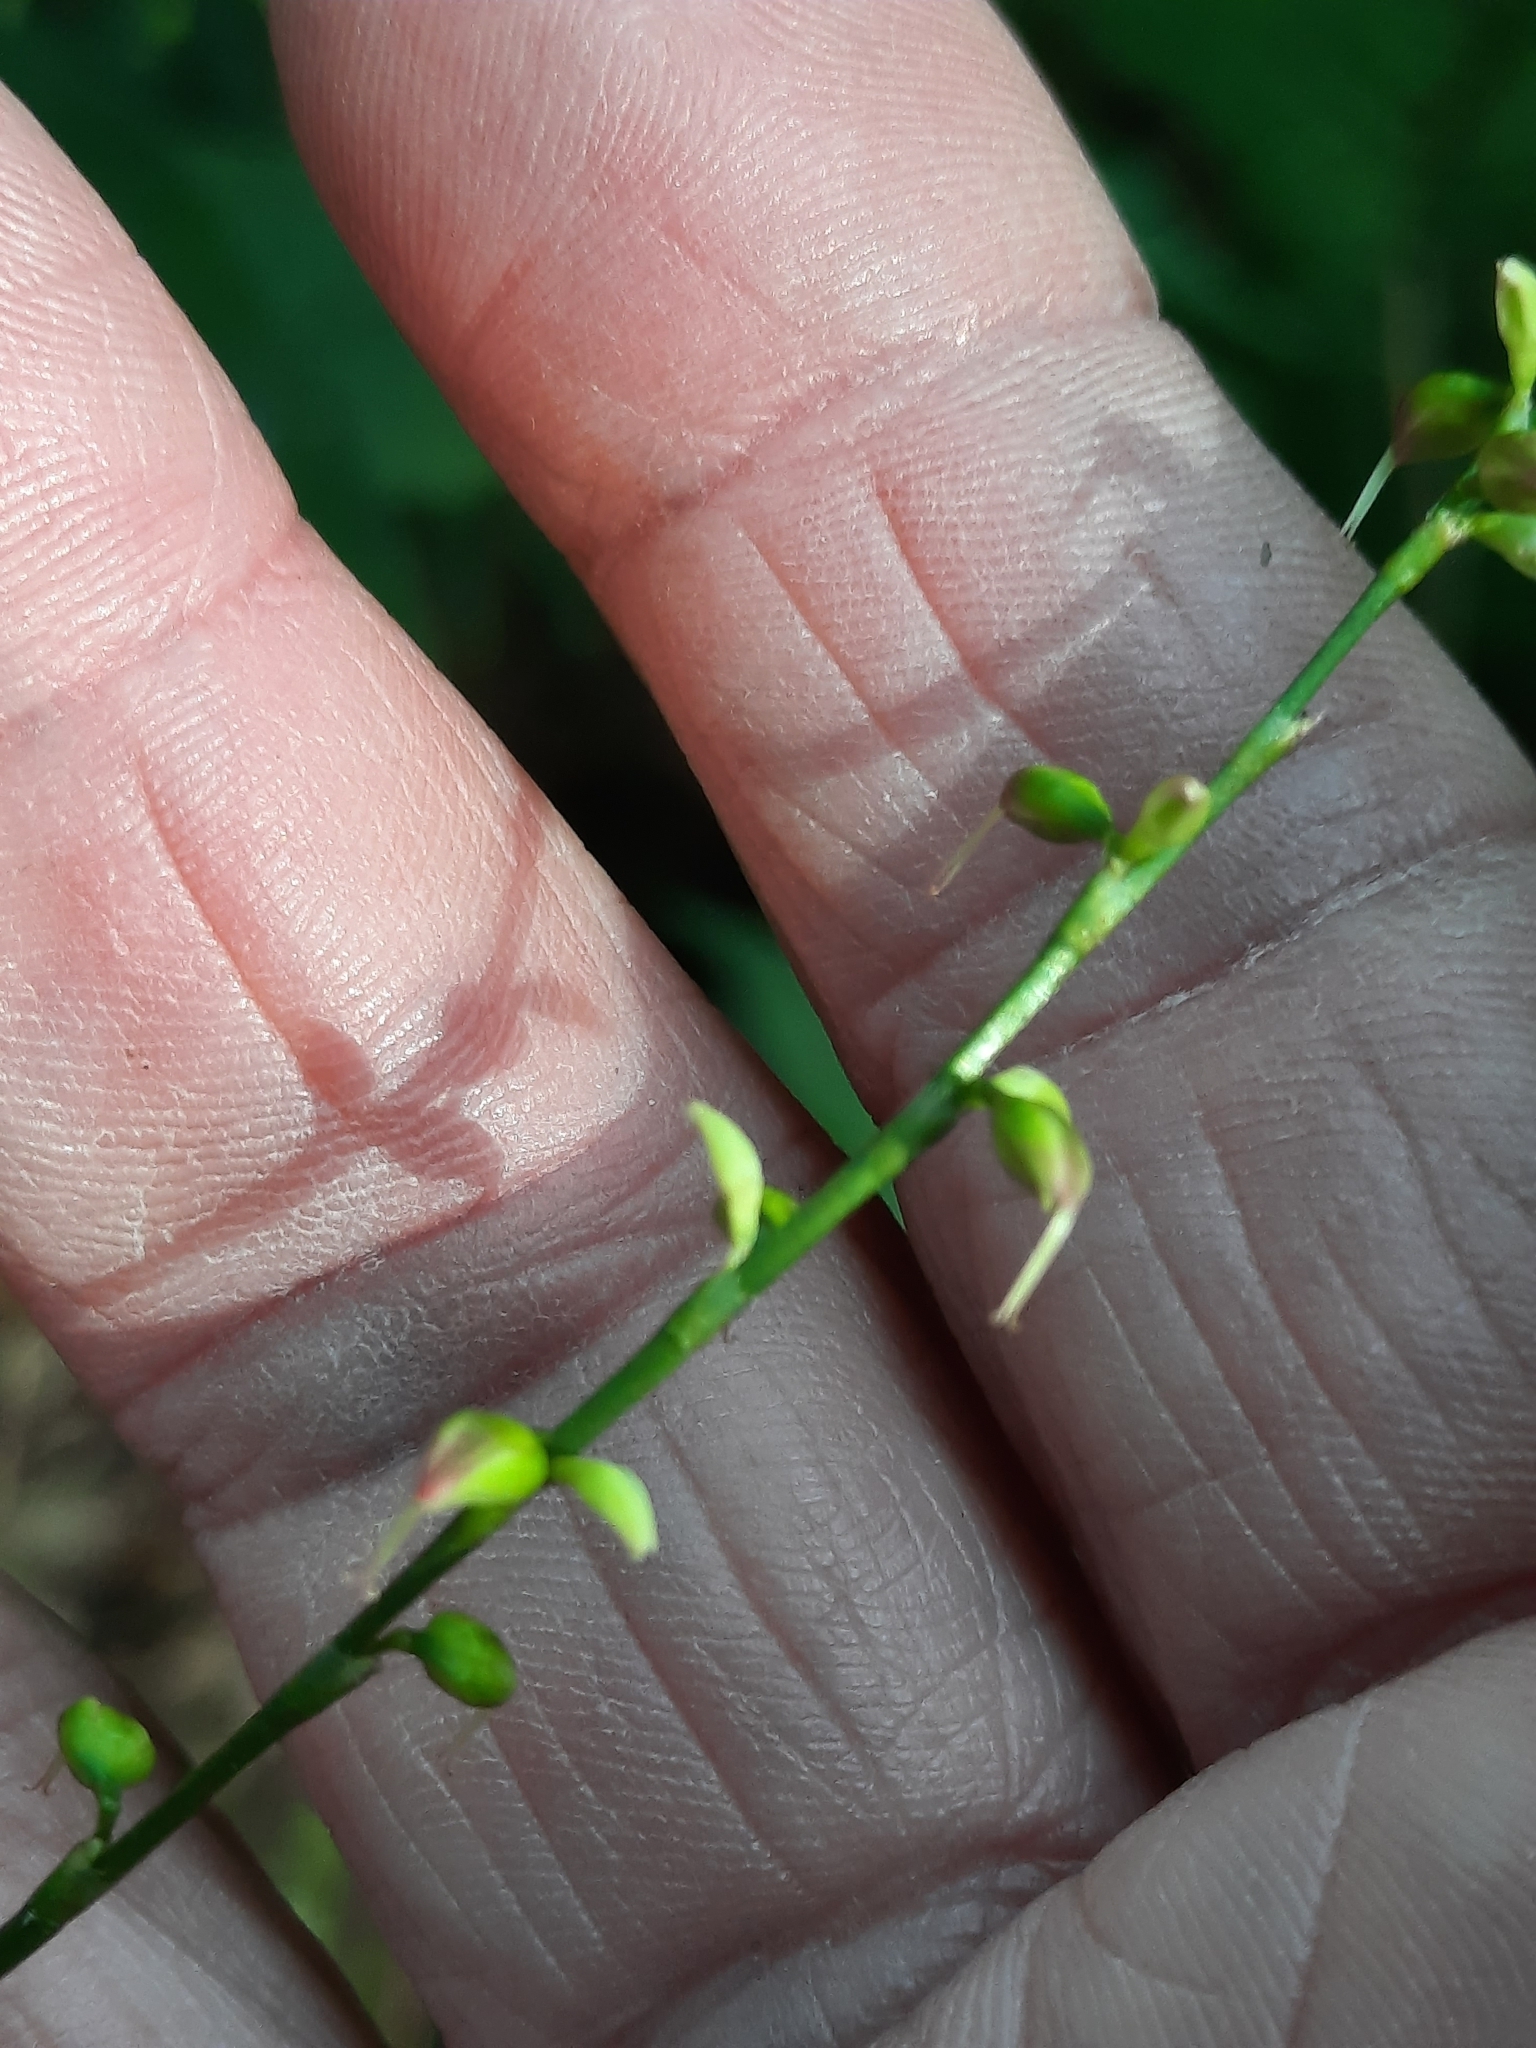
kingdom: Plantae
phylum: Tracheophyta
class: Magnoliopsida
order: Caryophyllales
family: Polygonaceae
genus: Persicaria
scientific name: Persicaria virginiana
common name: Jumpseed
